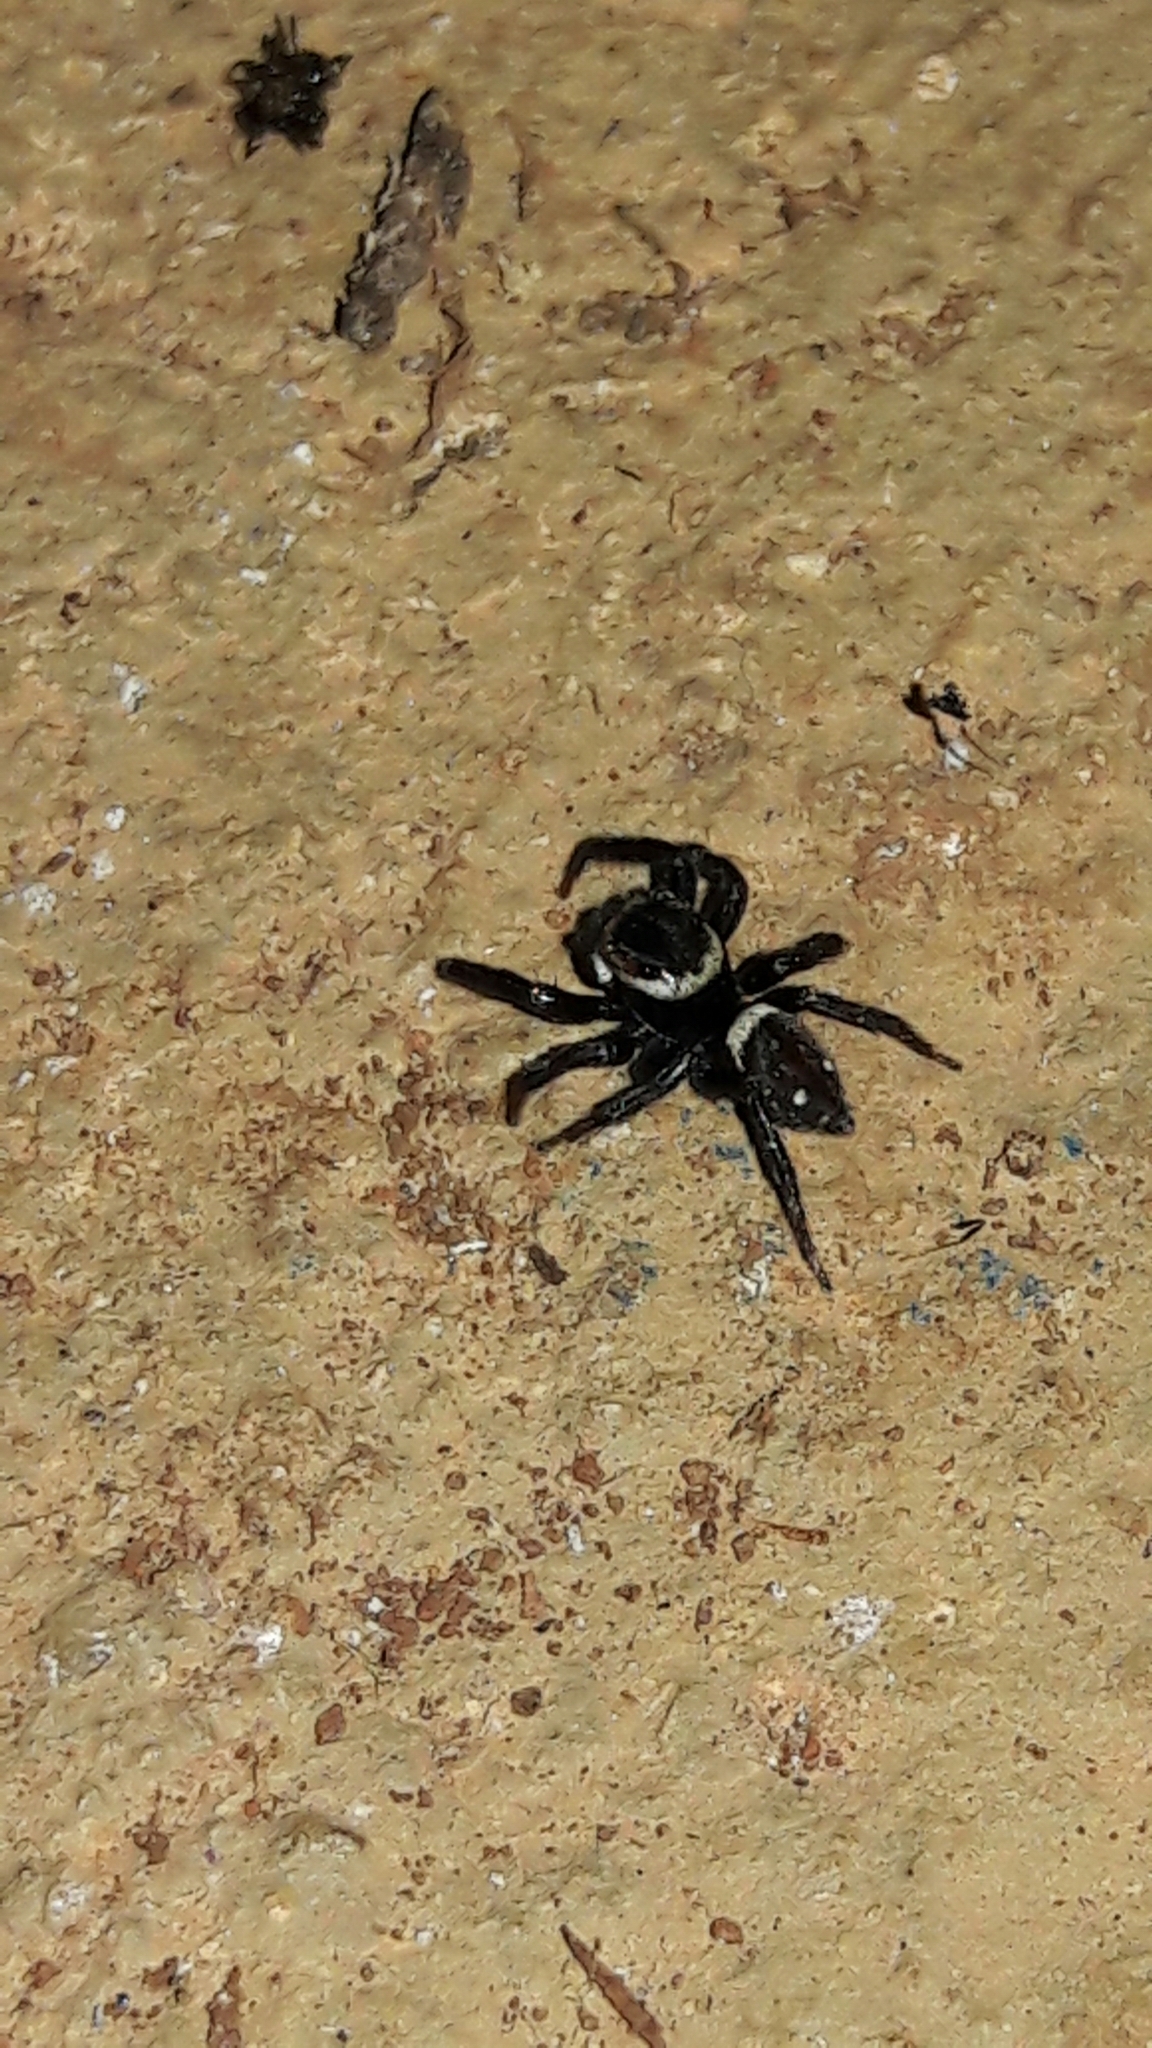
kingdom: Animalia
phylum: Arthropoda
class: Arachnida
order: Araneae
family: Salticidae
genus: Hasarius
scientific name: Hasarius adansoni
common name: Jumping spider
